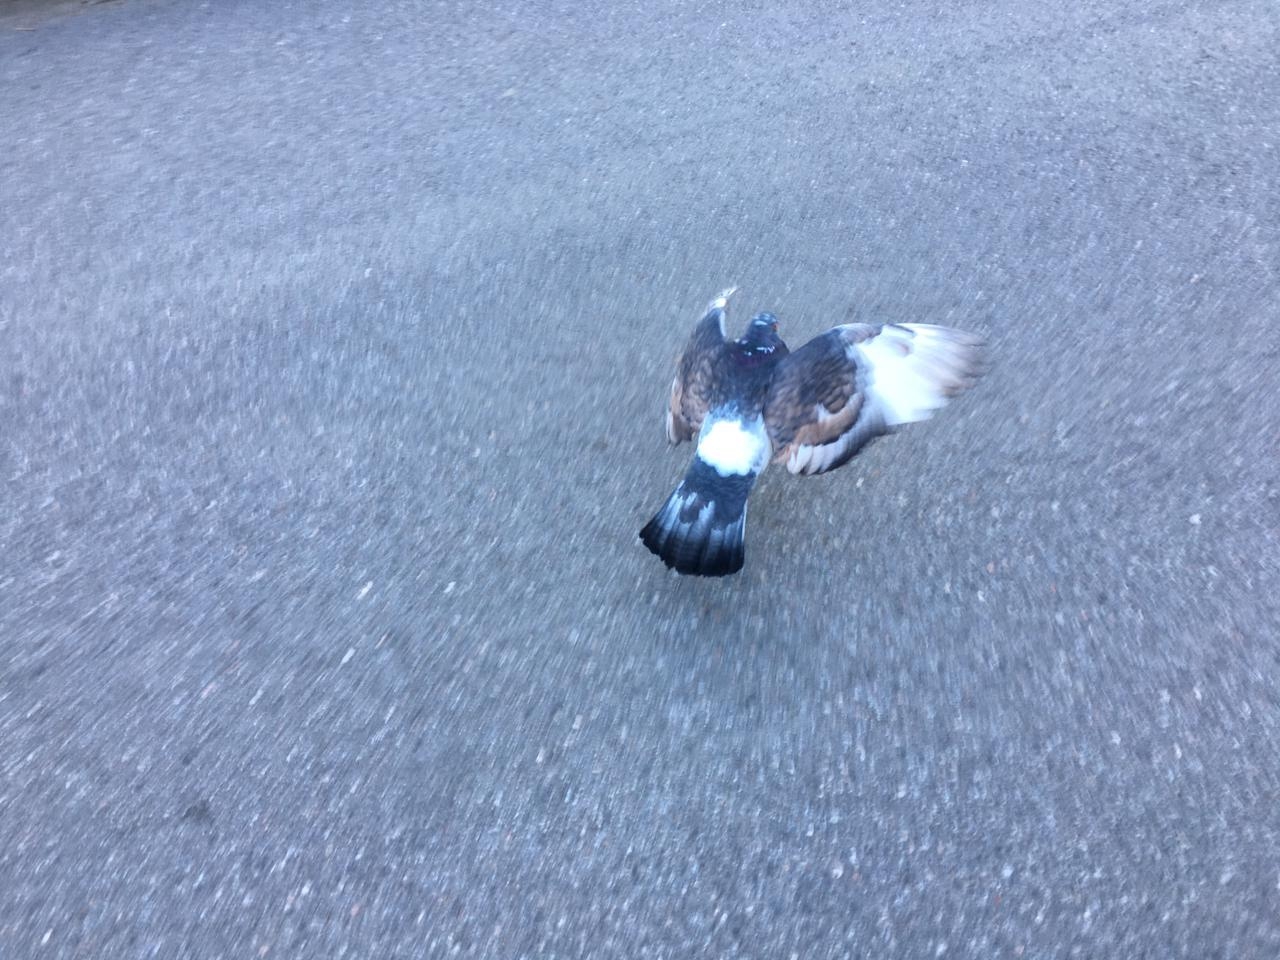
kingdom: Animalia
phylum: Chordata
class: Aves
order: Columbiformes
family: Columbidae
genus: Columba
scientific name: Columba livia
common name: Rock pigeon
